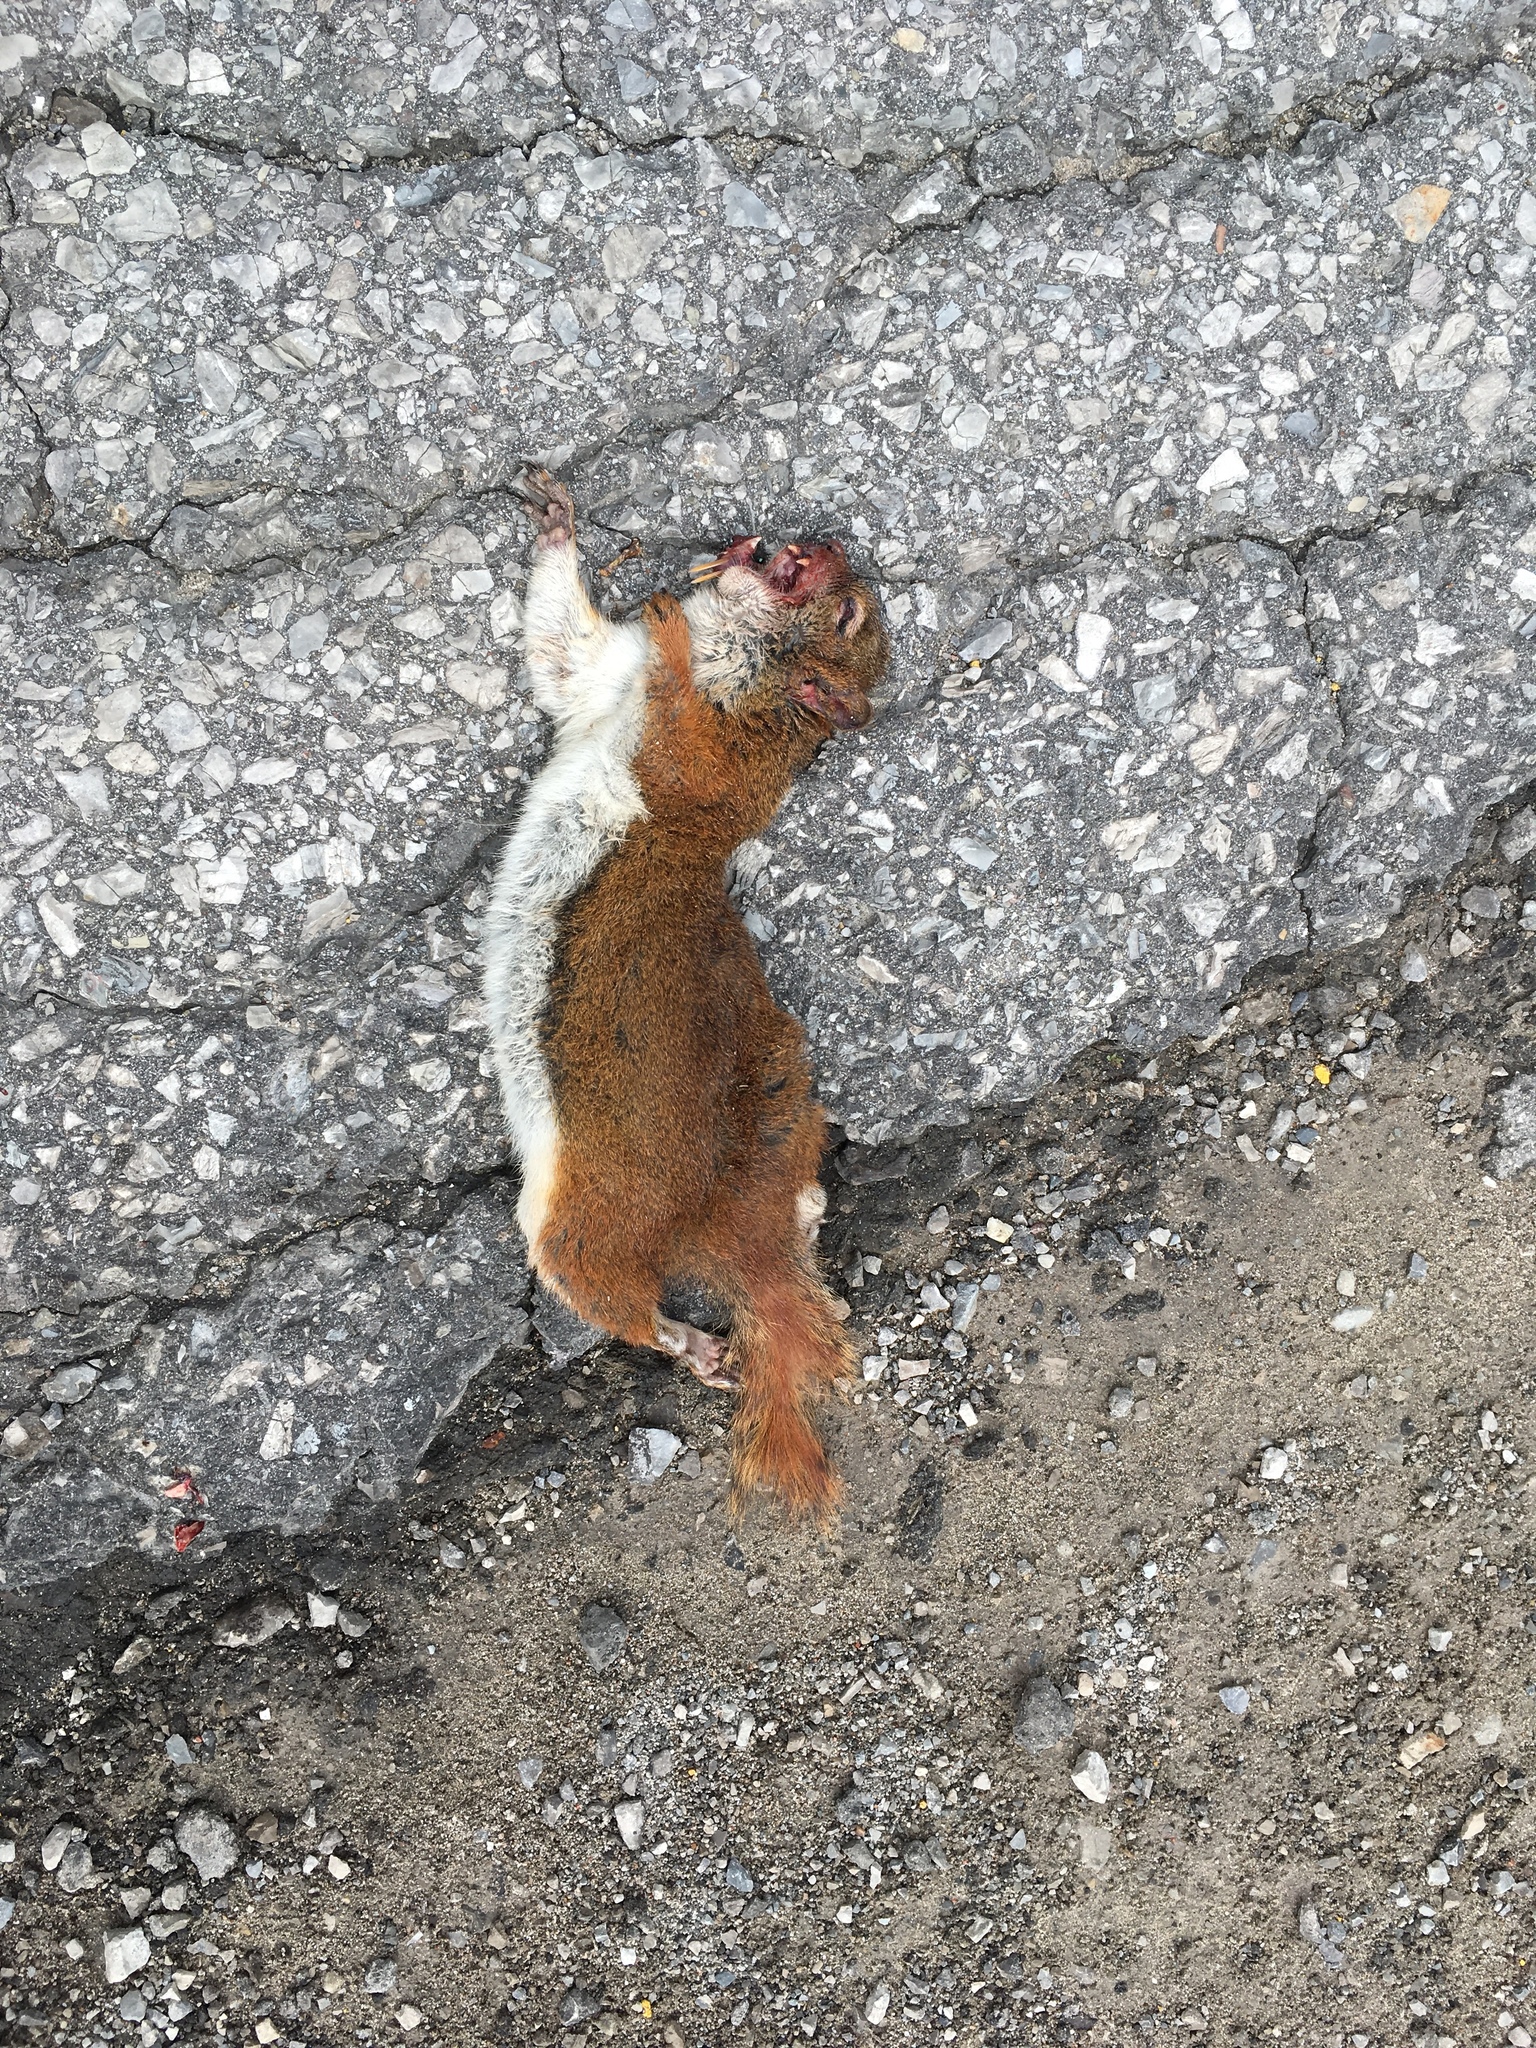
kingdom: Animalia
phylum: Chordata
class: Mammalia
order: Rodentia
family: Sciuridae
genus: Tamiasciurus
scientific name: Tamiasciurus hudsonicus
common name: Red squirrel
